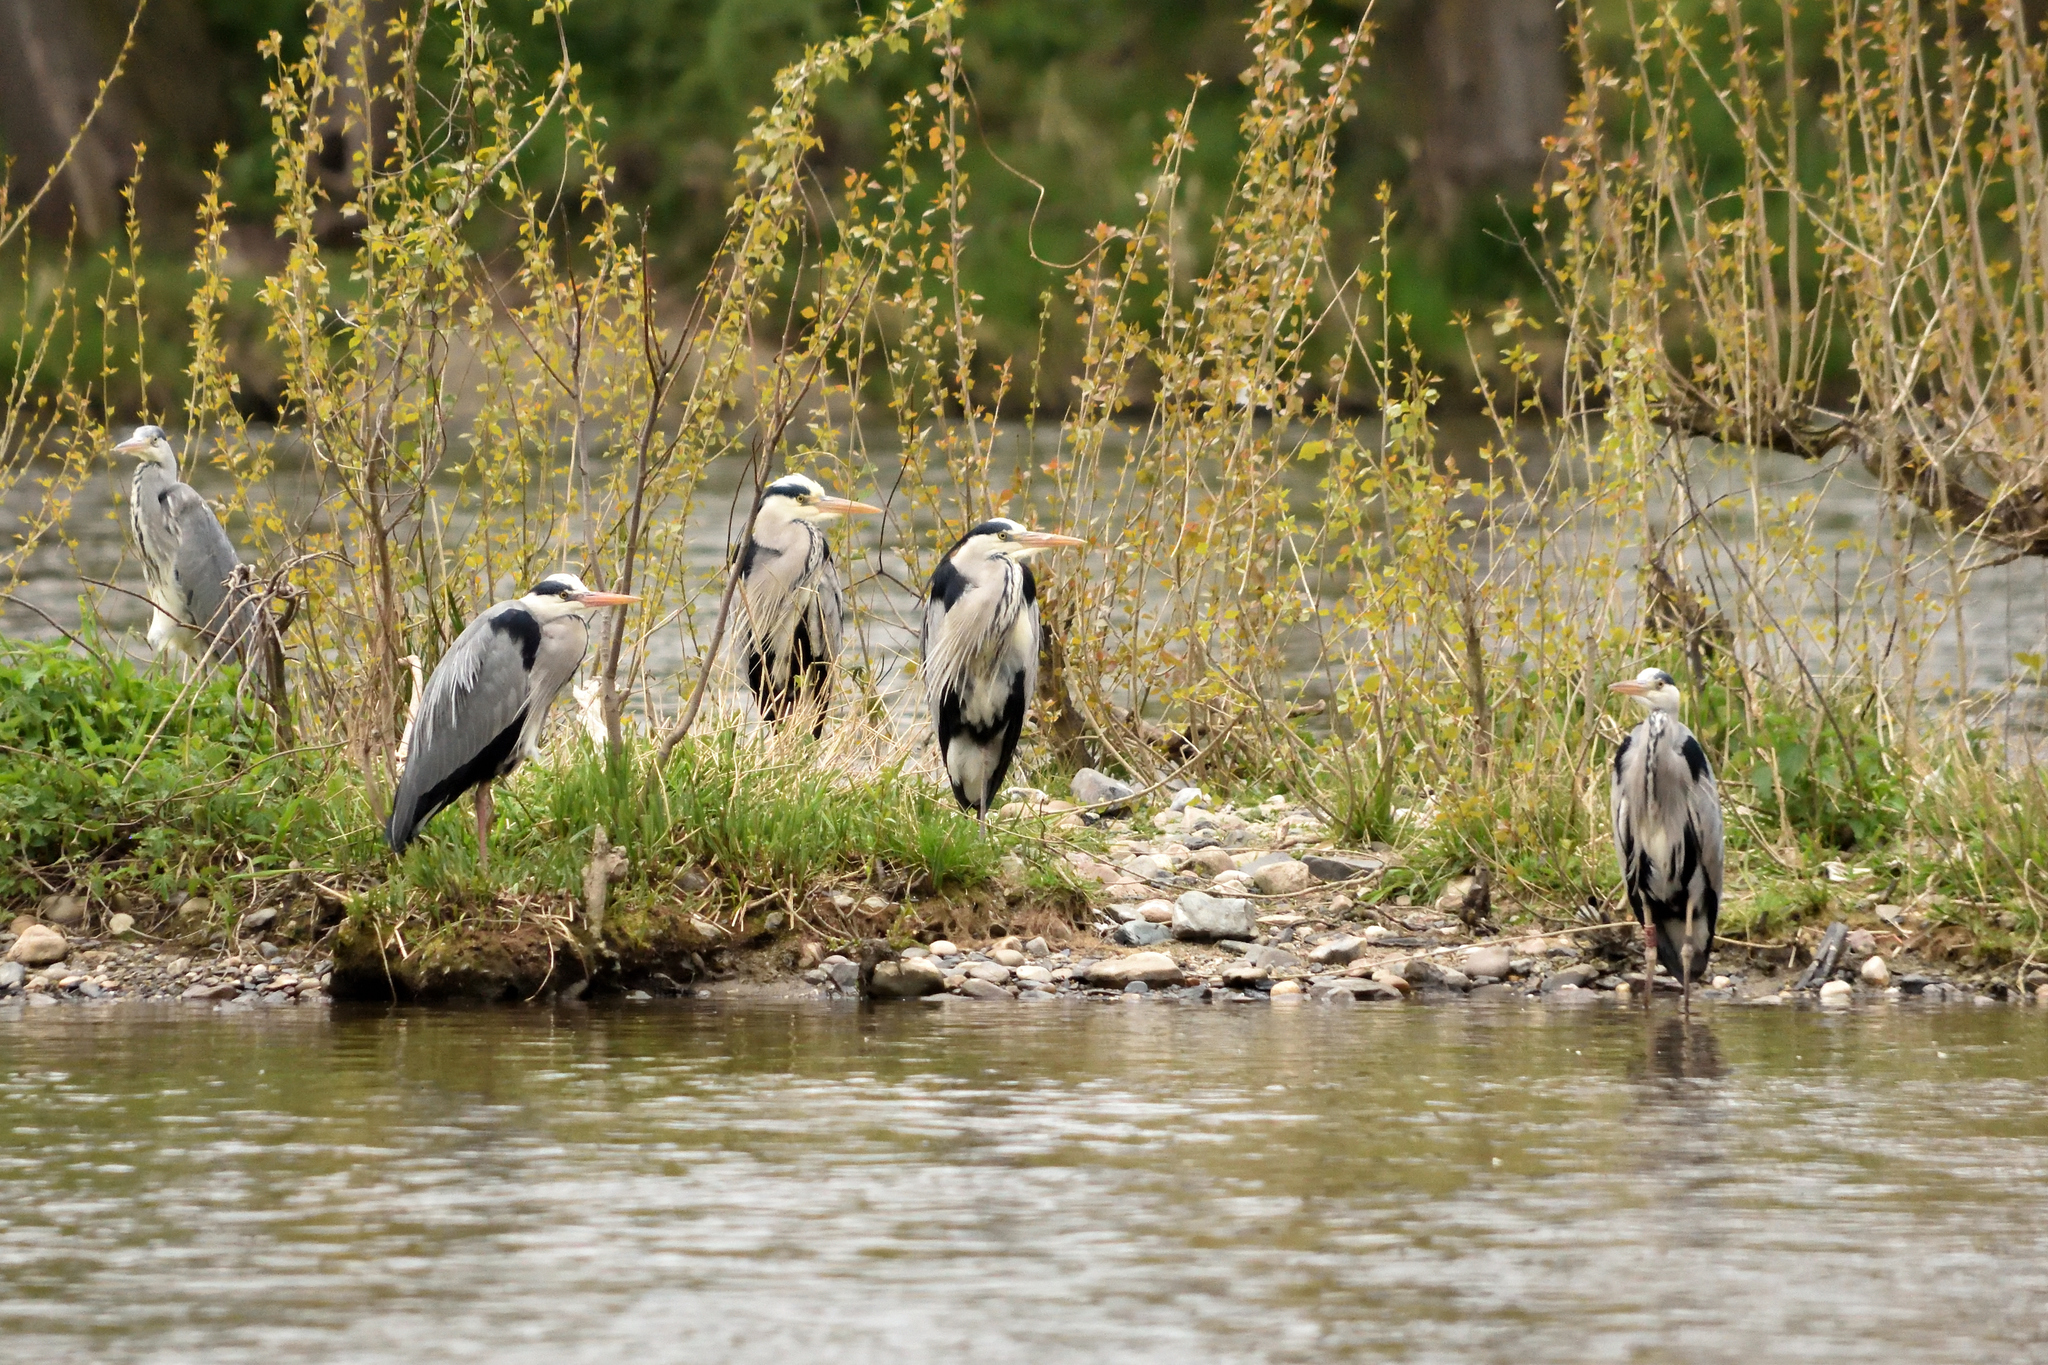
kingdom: Animalia
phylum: Chordata
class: Aves
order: Pelecaniformes
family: Ardeidae
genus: Ardea
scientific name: Ardea cinerea
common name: Grey heron
